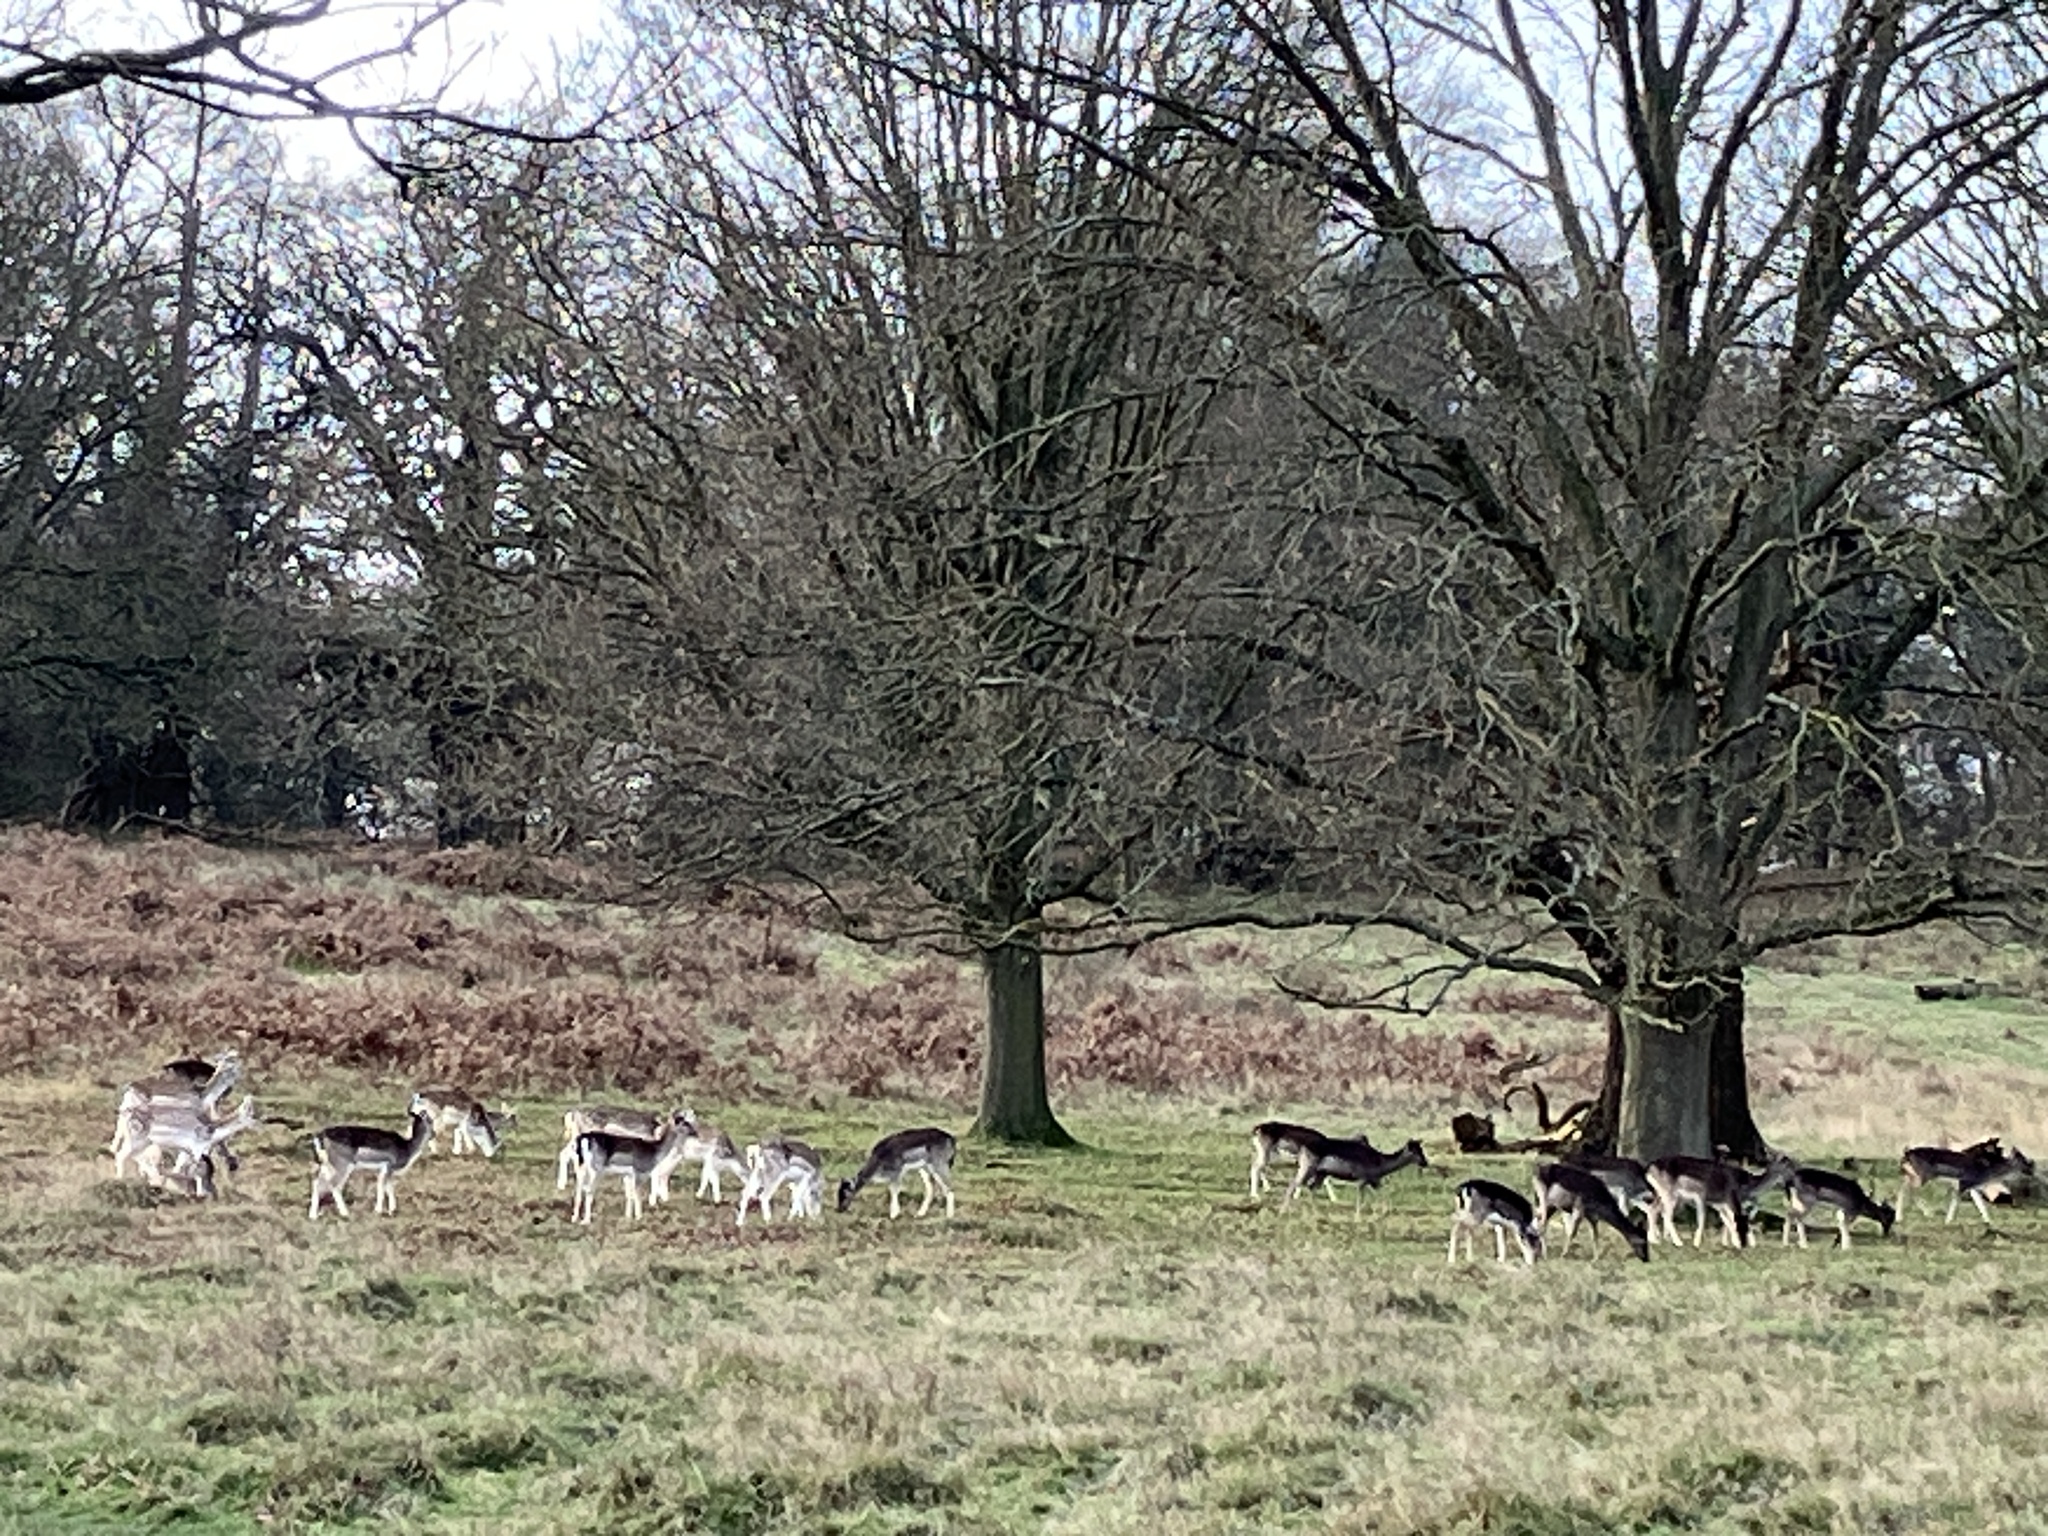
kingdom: Animalia
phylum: Chordata
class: Mammalia
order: Artiodactyla
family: Cervidae
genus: Dama
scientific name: Dama dama
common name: Fallow deer
